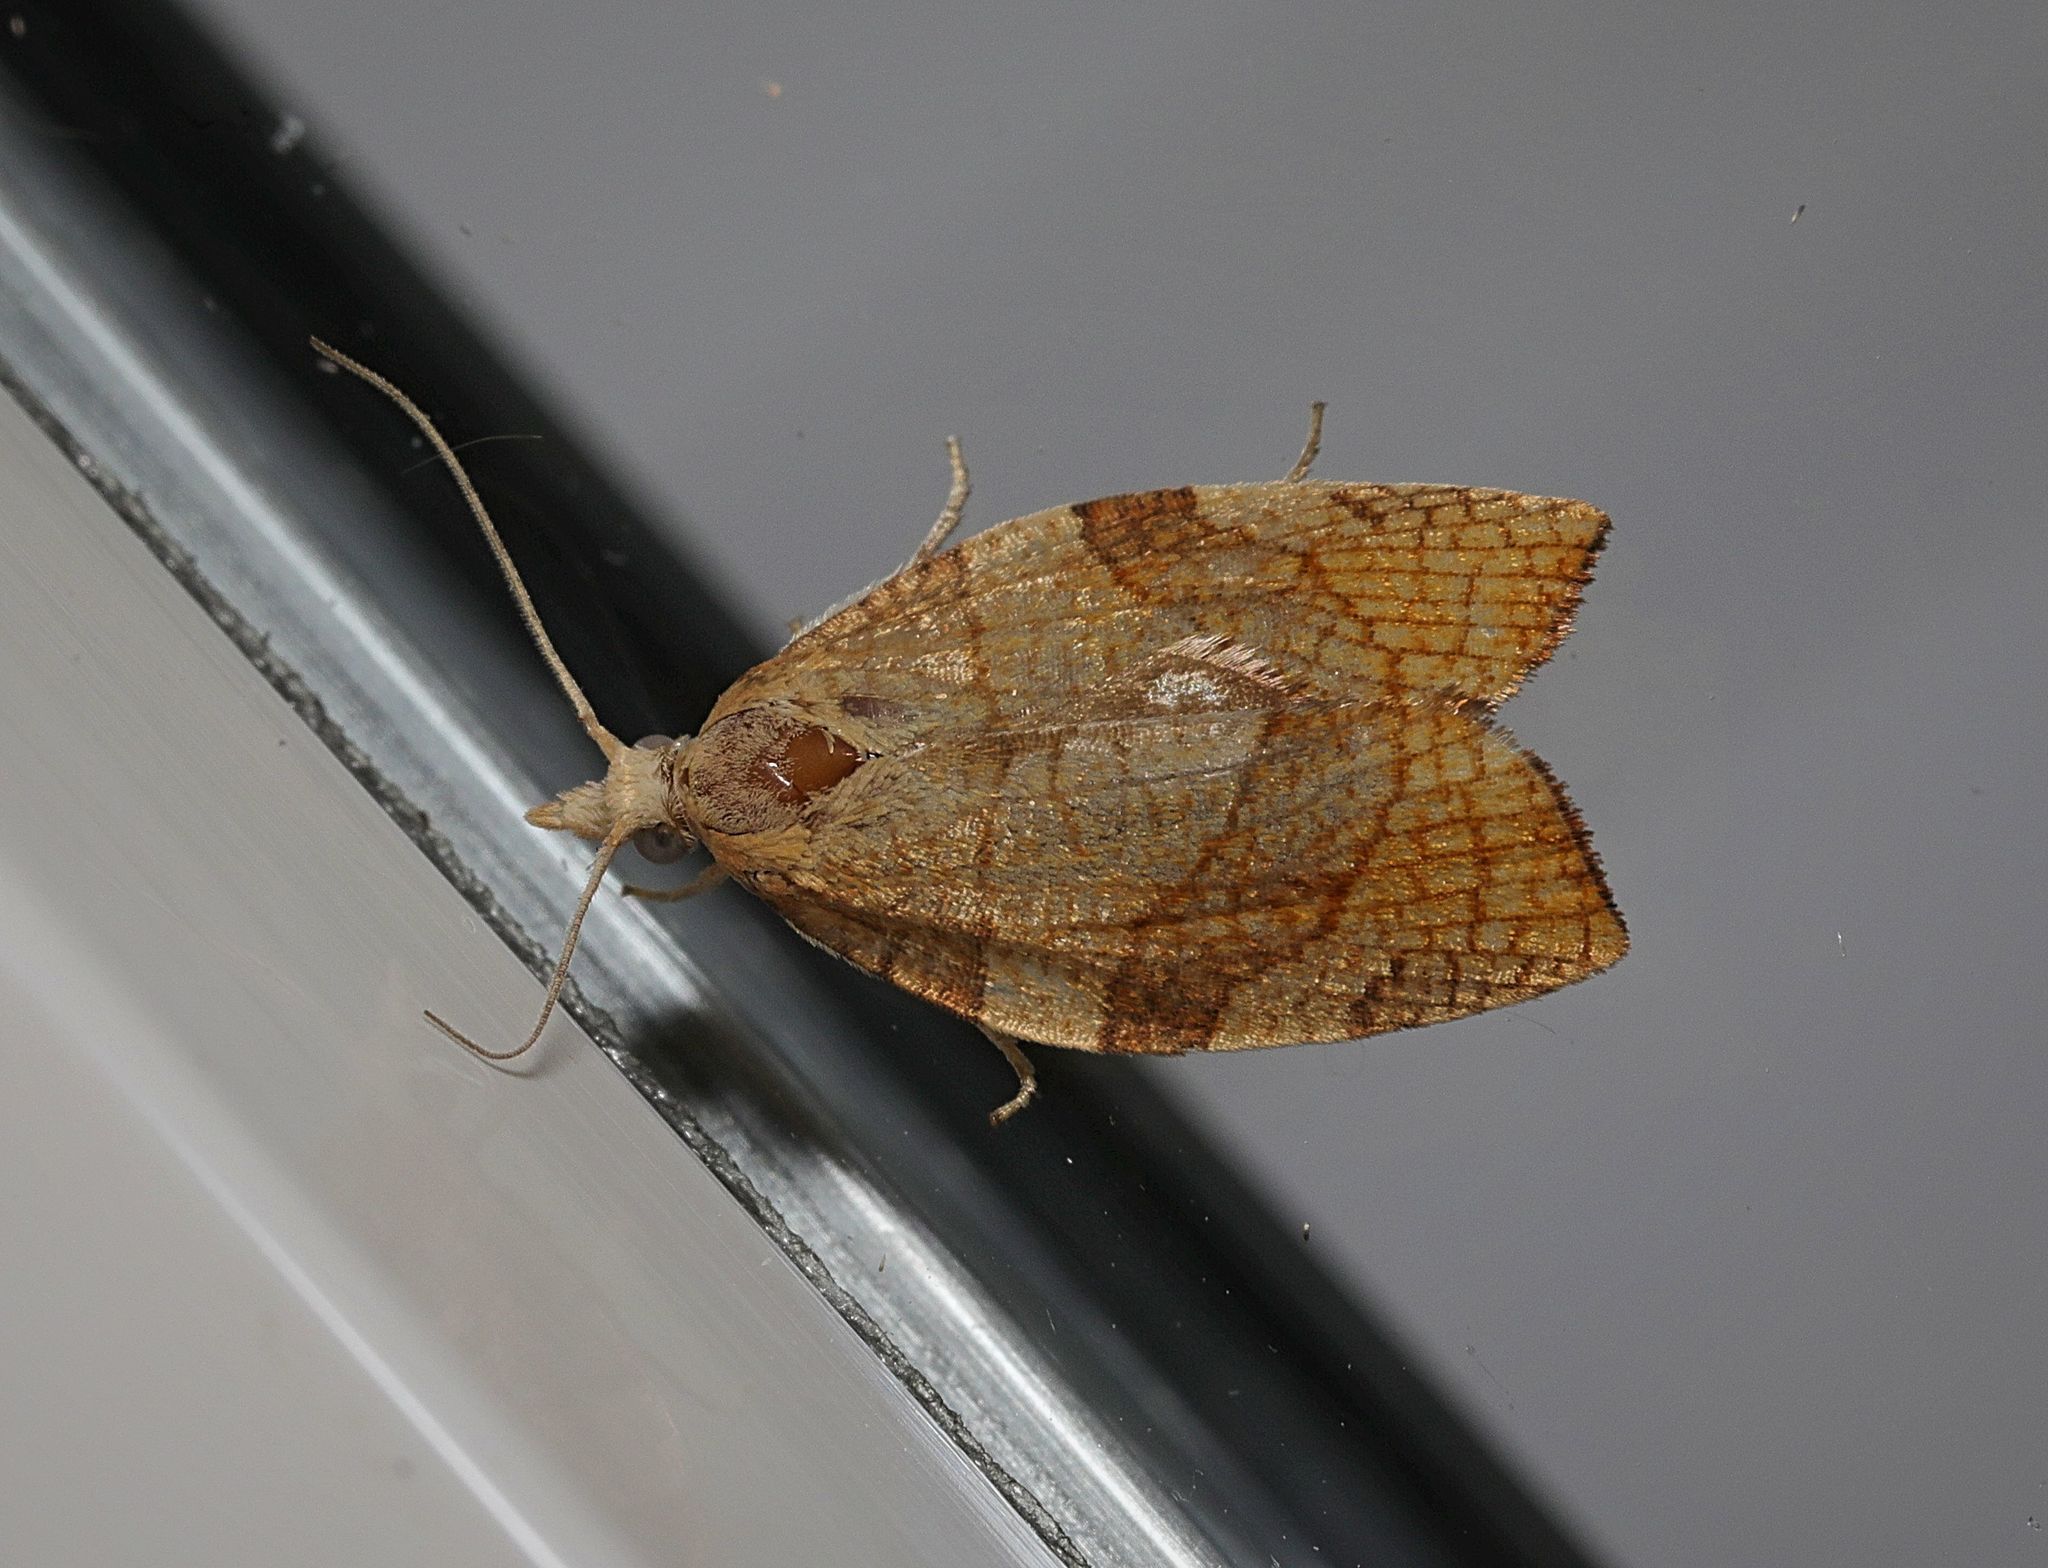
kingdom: Animalia
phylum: Arthropoda
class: Insecta
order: Lepidoptera
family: Tortricidae
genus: Pandemis
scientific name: Pandemis corylana
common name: Chequered fruit-tree tortrix
